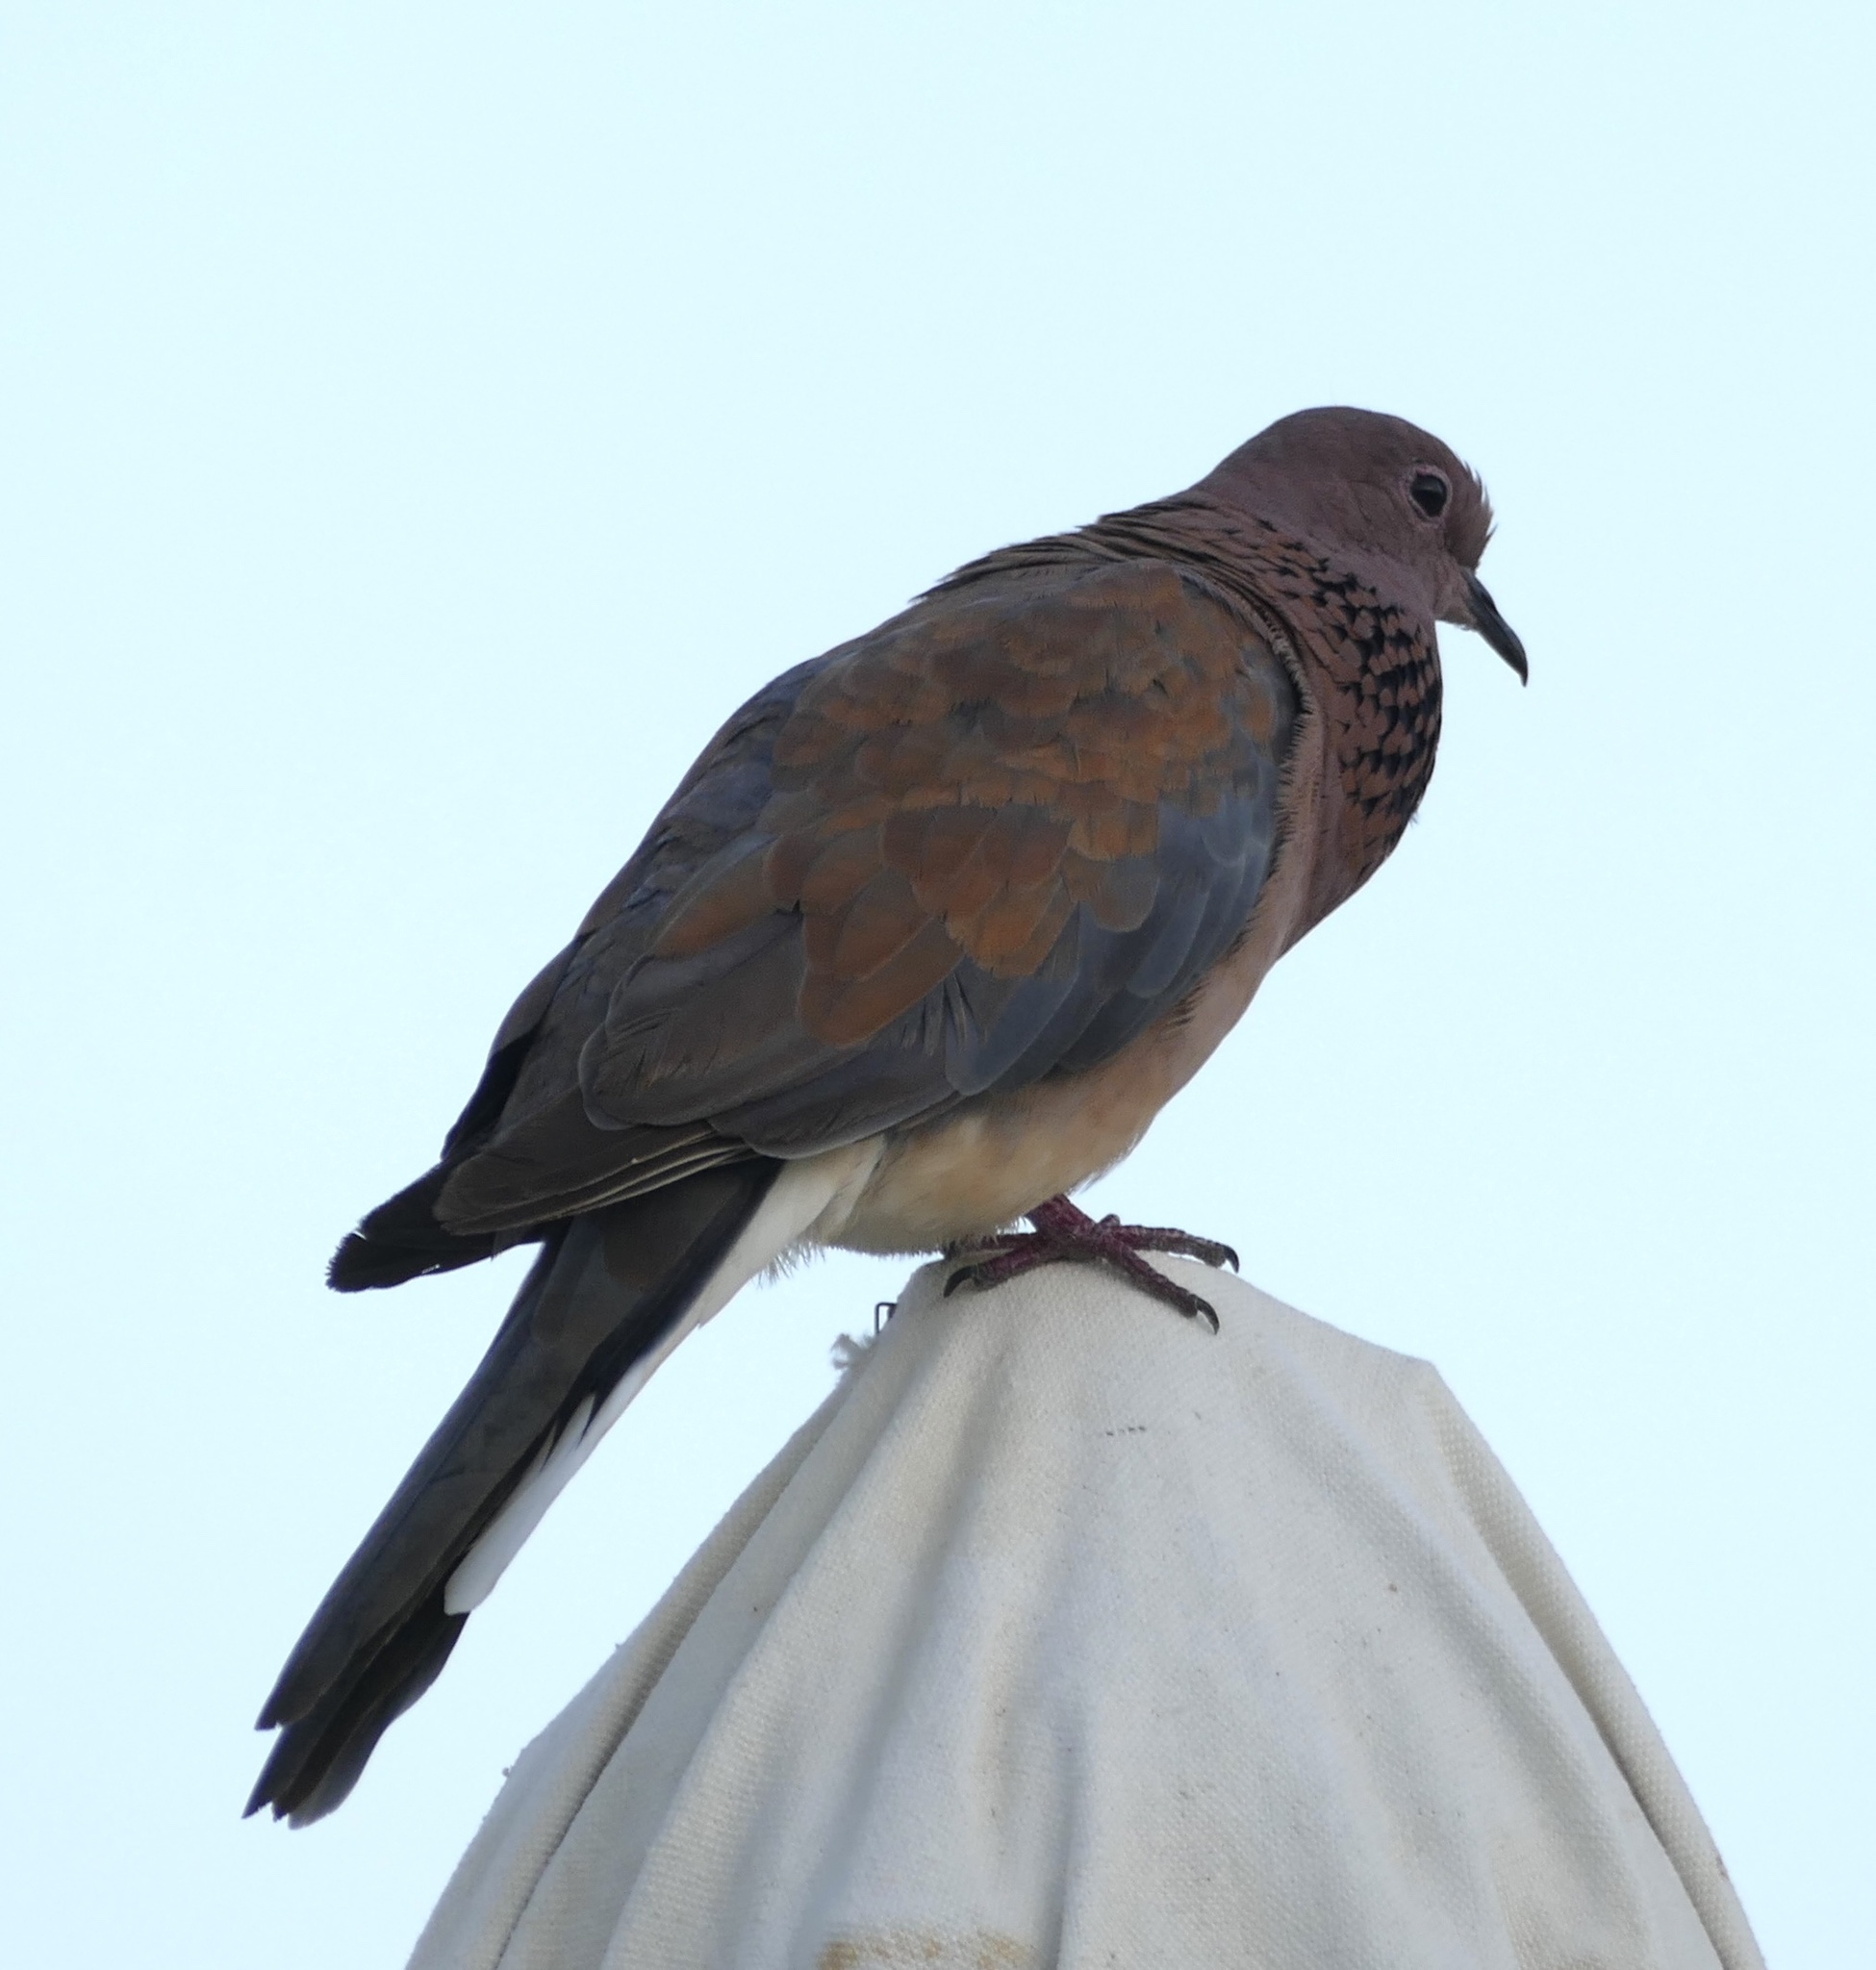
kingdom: Animalia
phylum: Chordata
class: Aves
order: Columbiformes
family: Columbidae
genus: Spilopelia
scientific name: Spilopelia senegalensis
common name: Laughing dove
